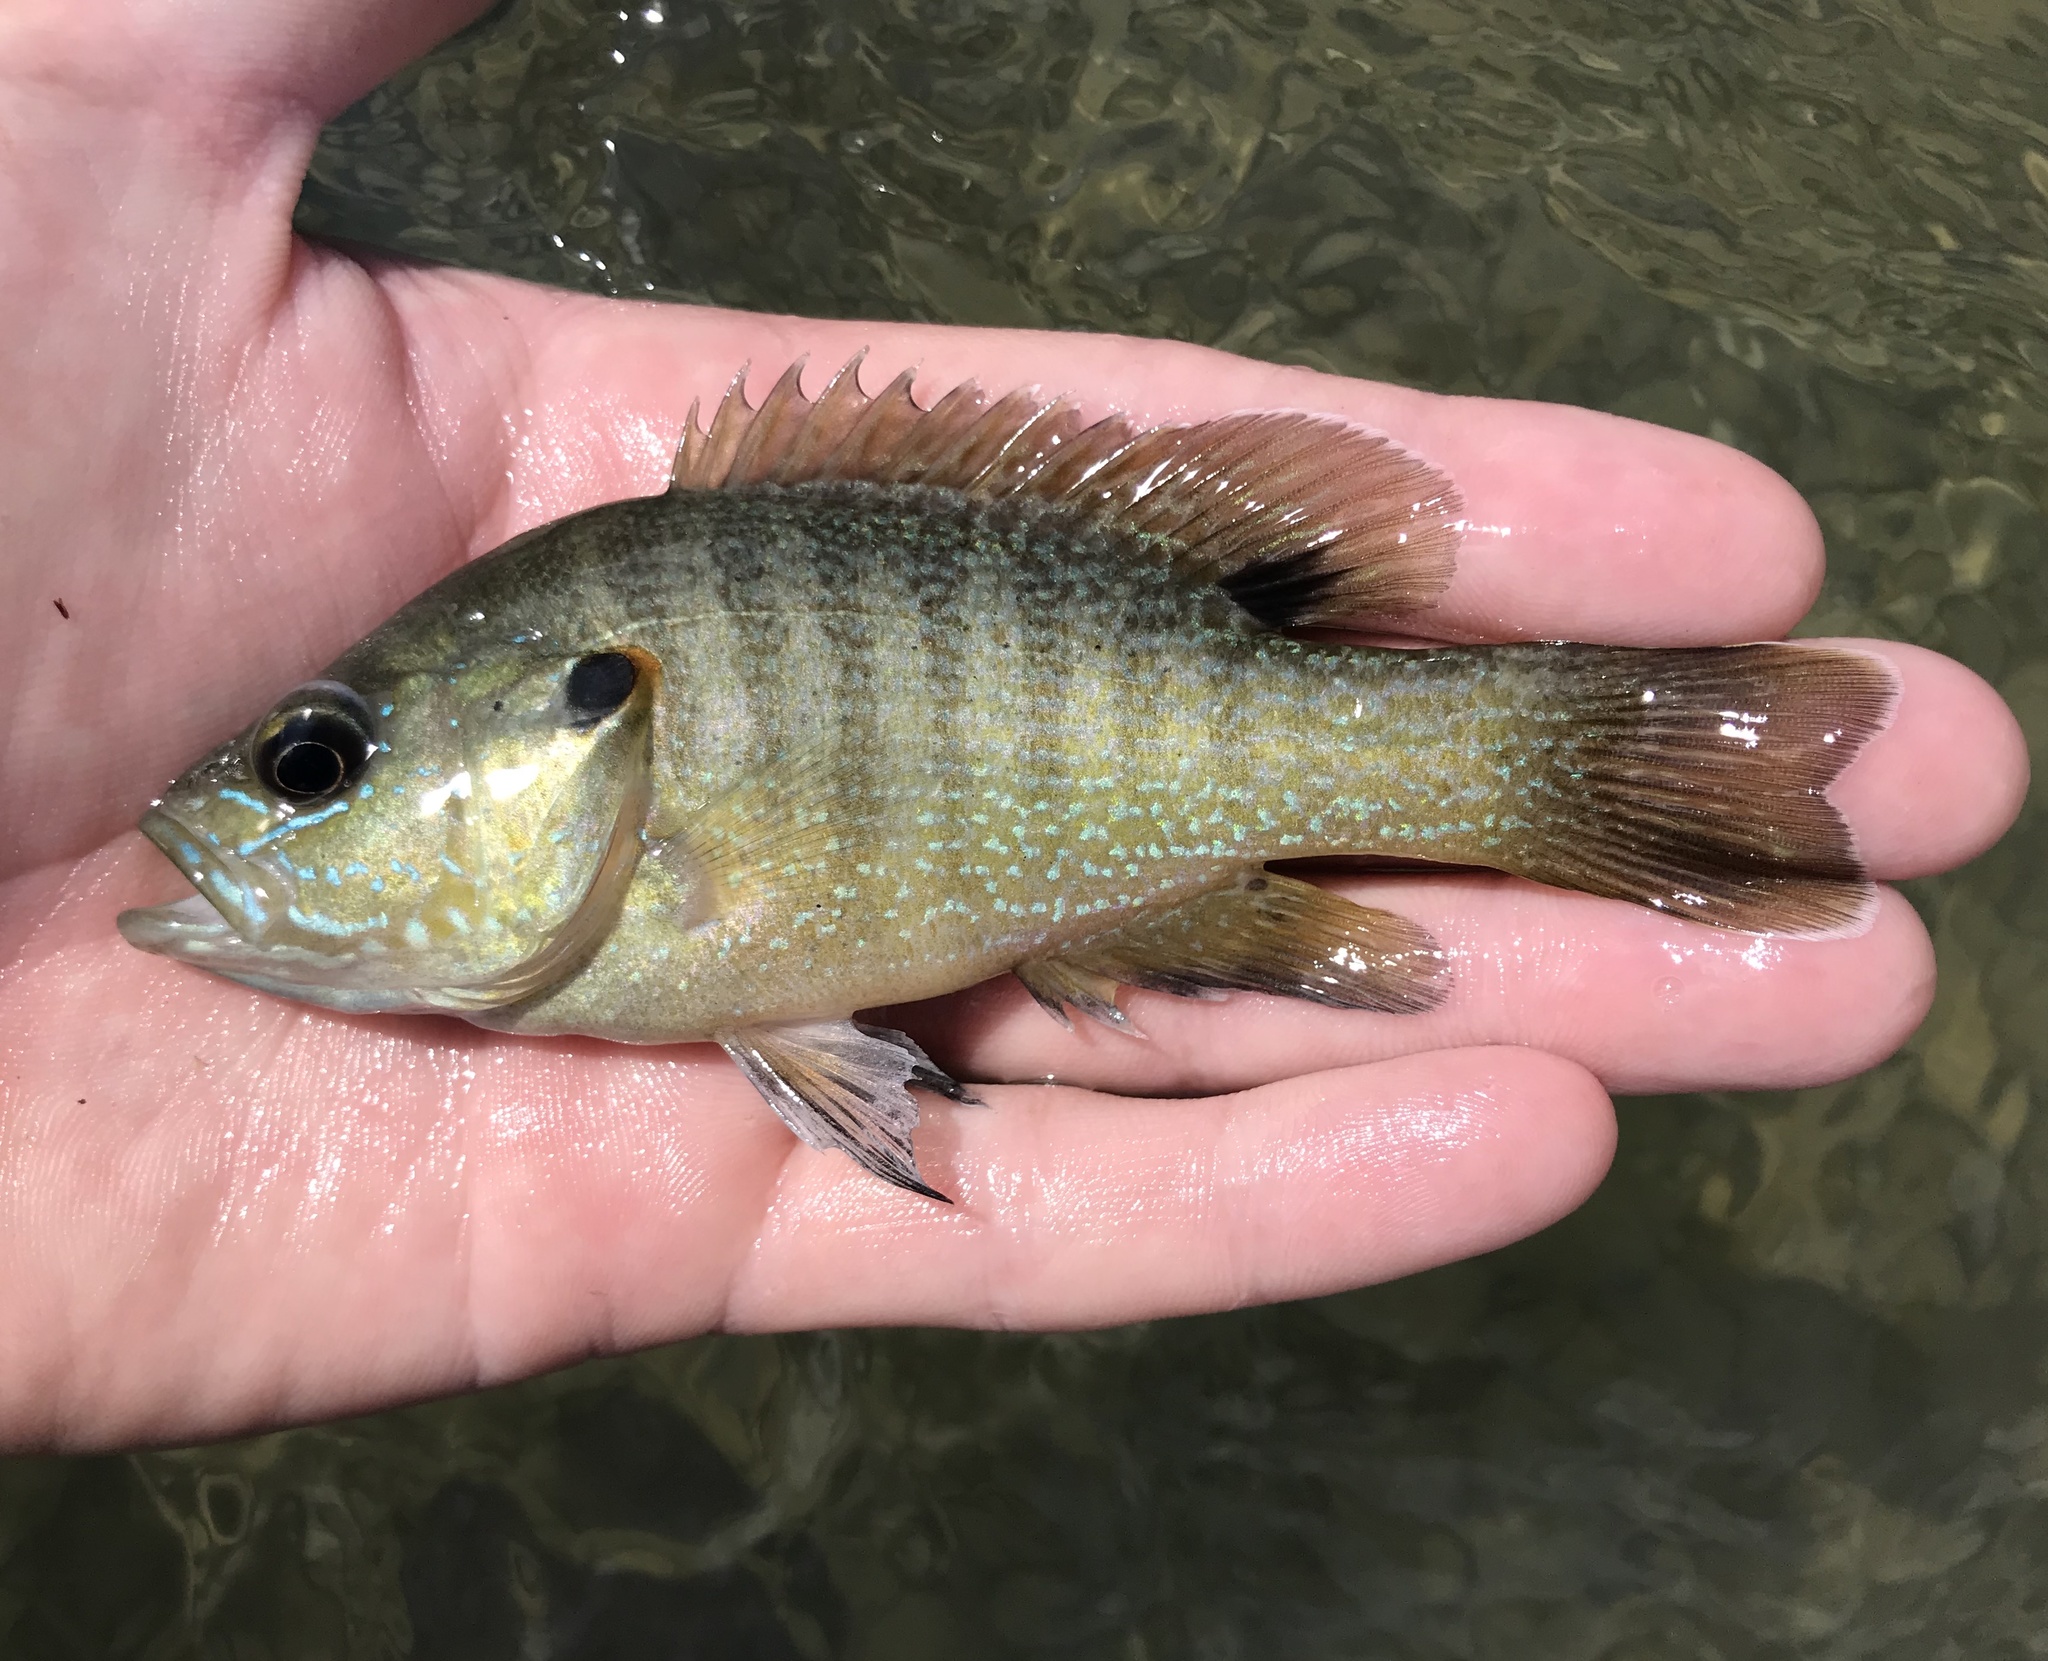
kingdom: Animalia
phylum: Chordata
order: Perciformes
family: Centrarchidae
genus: Lepomis
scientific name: Lepomis cyanellus
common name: Green sunfish
